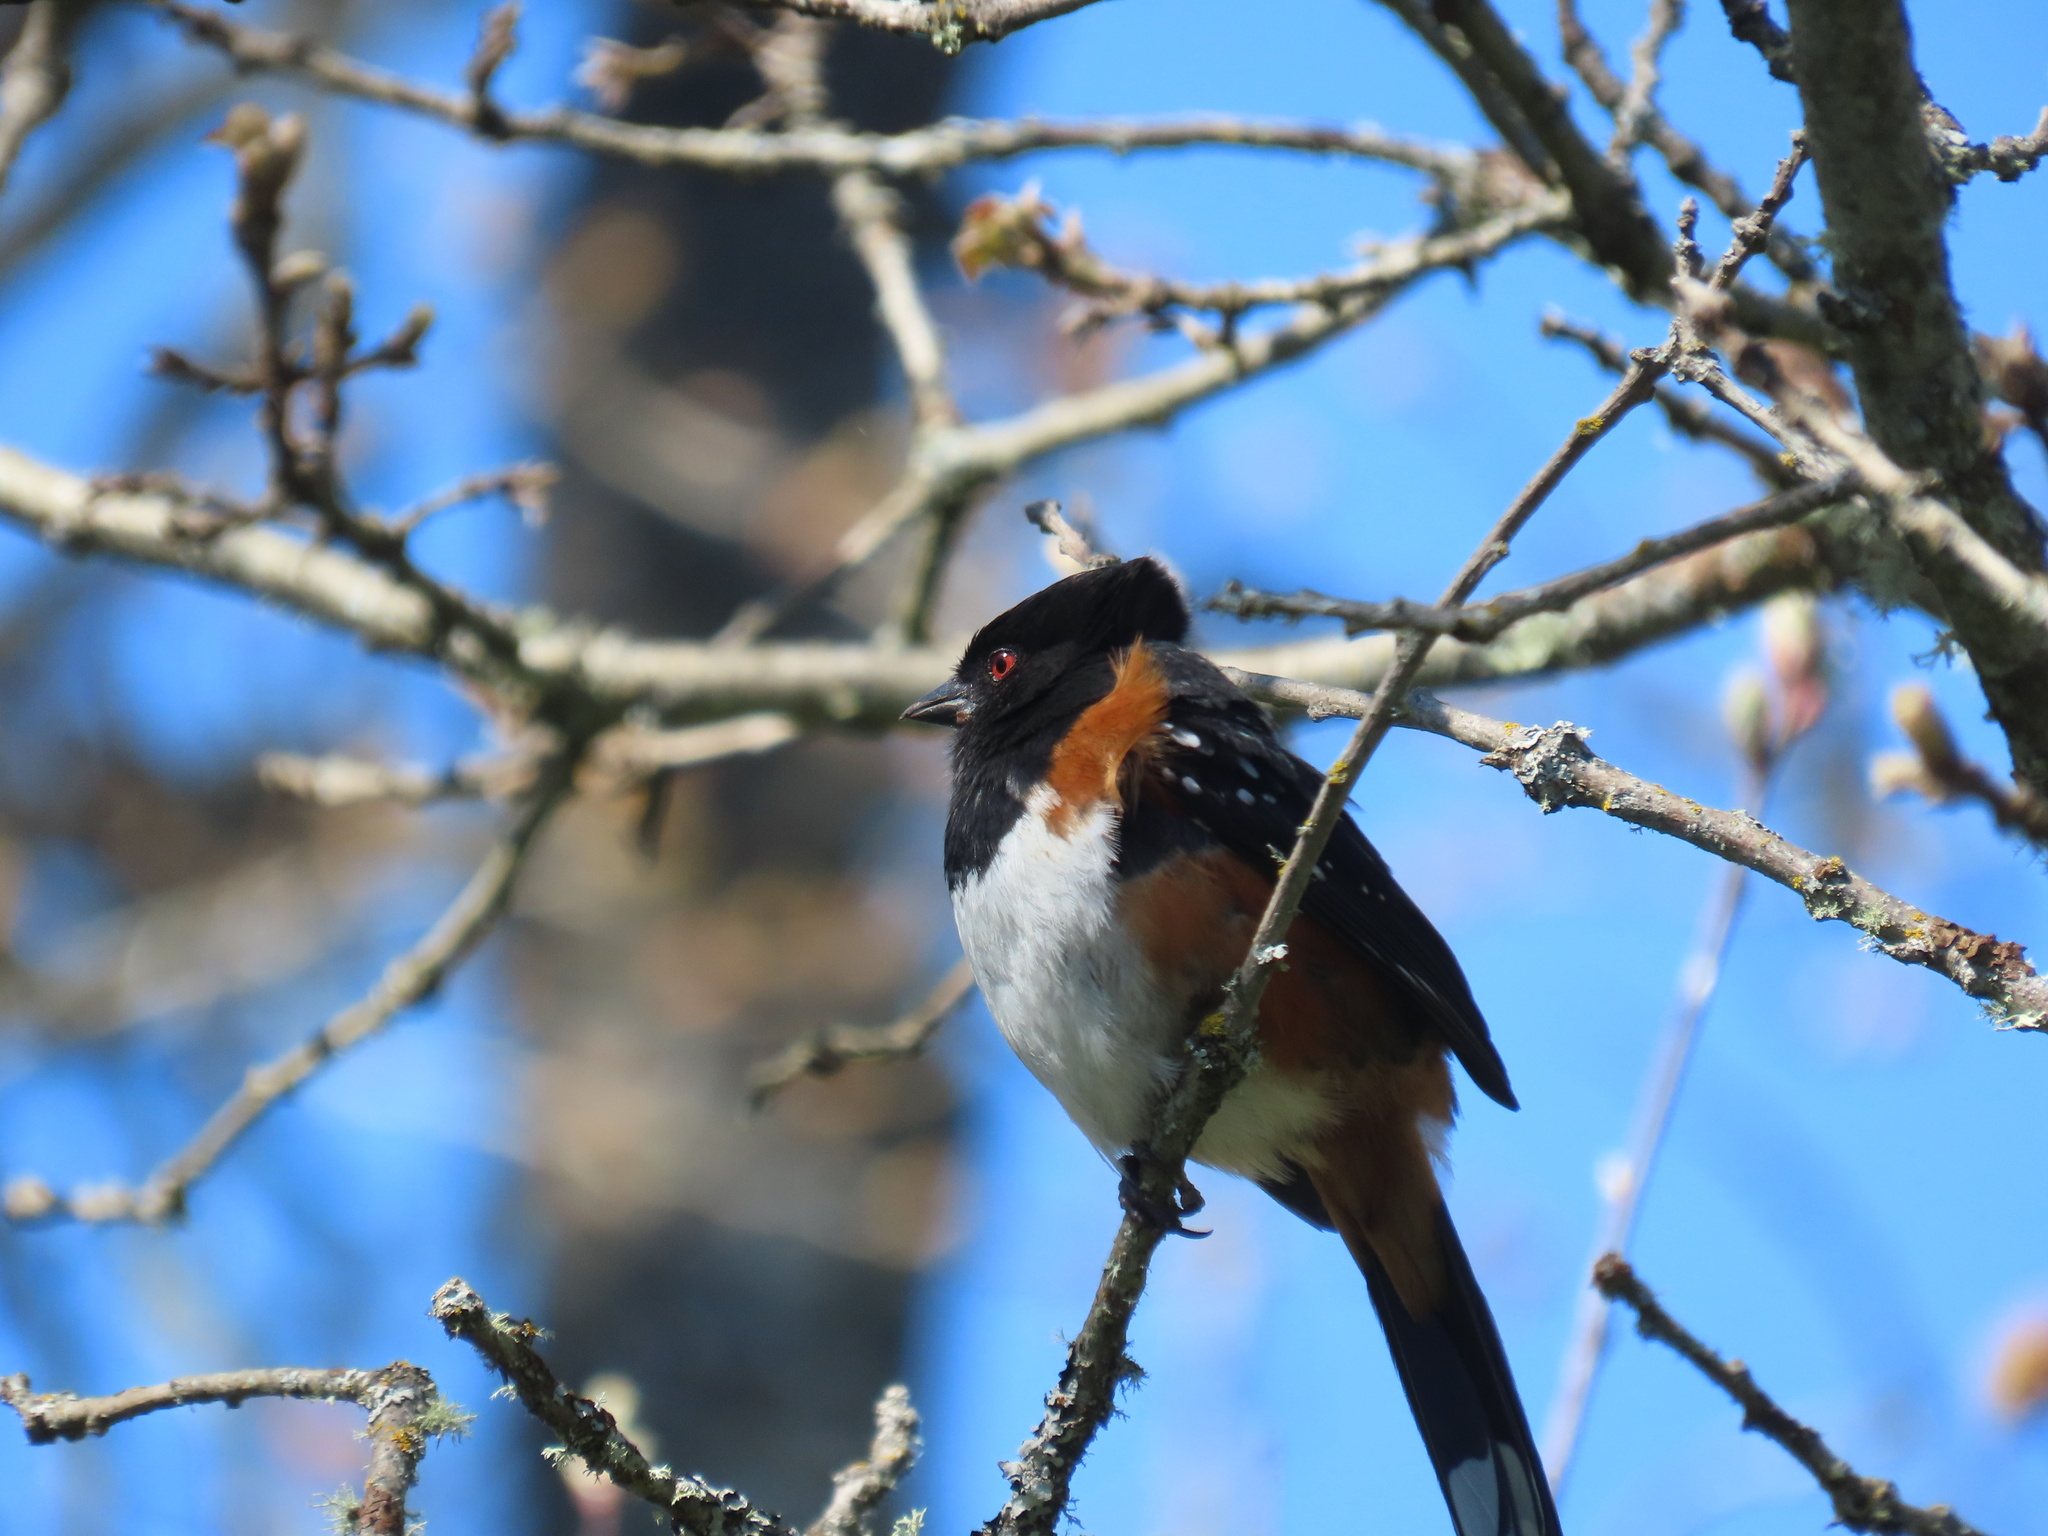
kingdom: Animalia
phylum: Chordata
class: Aves
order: Passeriformes
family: Passerellidae
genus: Pipilo
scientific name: Pipilo maculatus
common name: Spotted towhee
